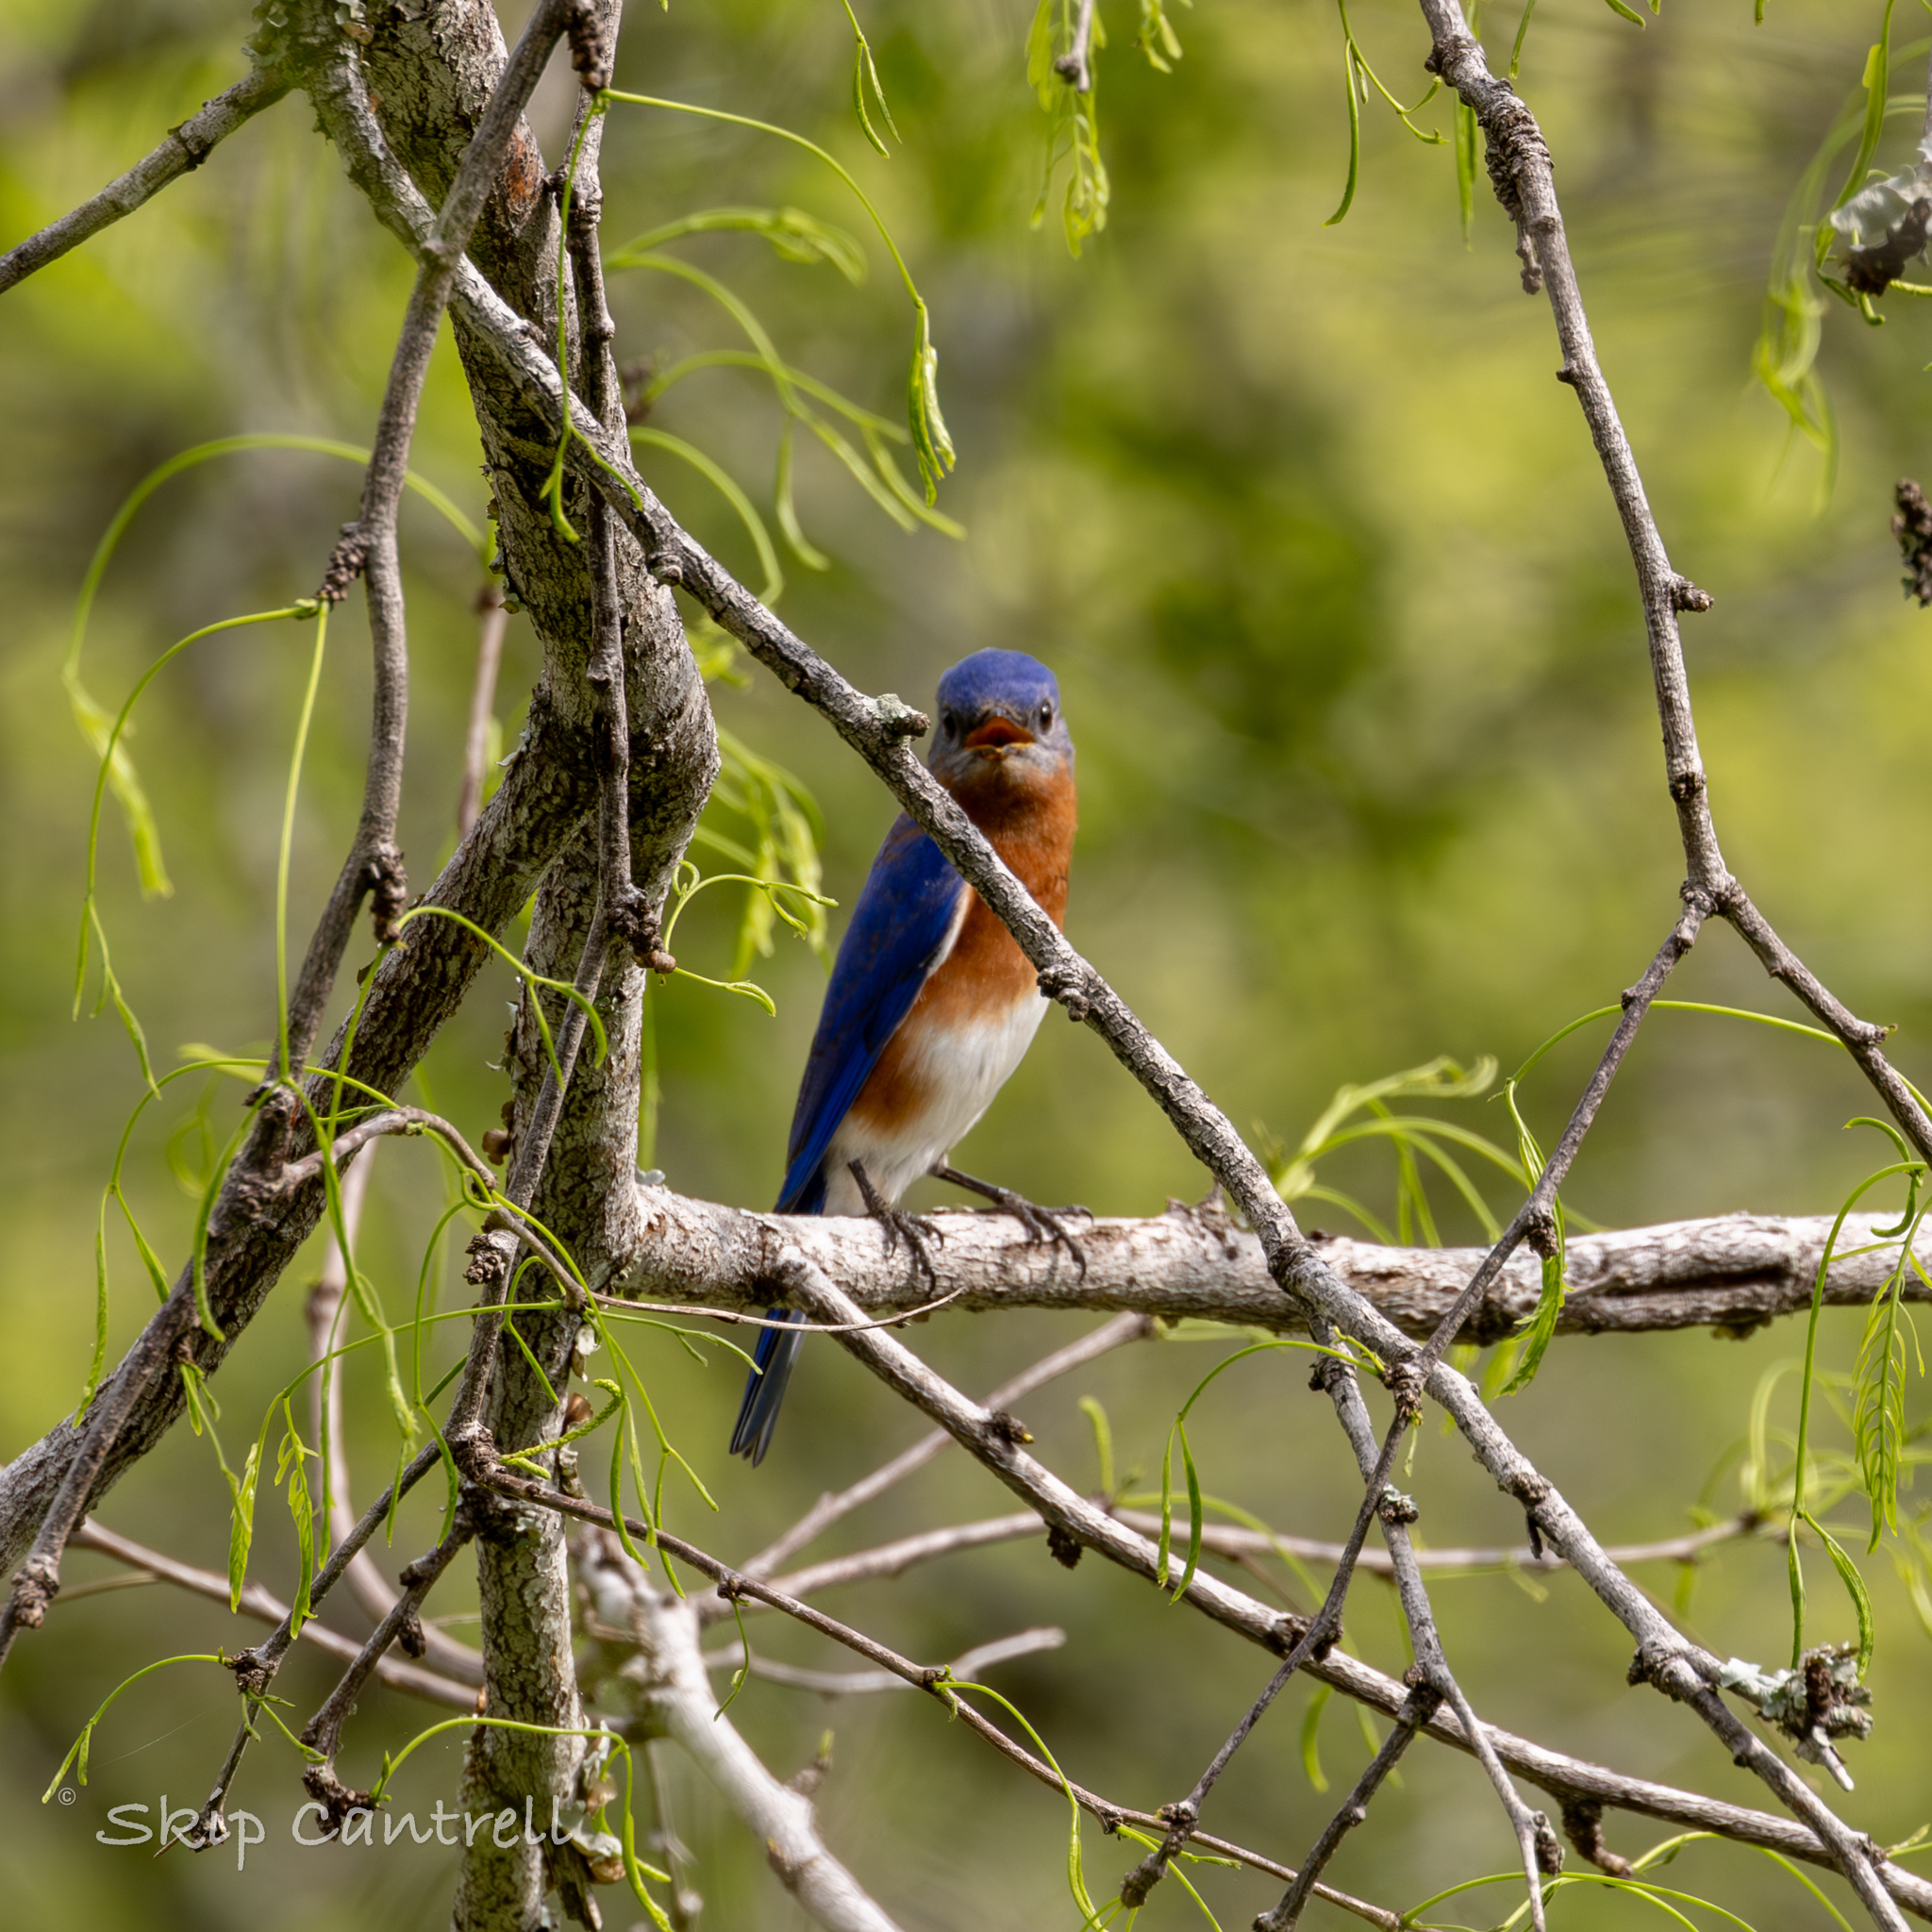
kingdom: Animalia
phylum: Chordata
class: Aves
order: Passeriformes
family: Turdidae
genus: Sialia
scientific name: Sialia sialis
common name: Eastern bluebird
